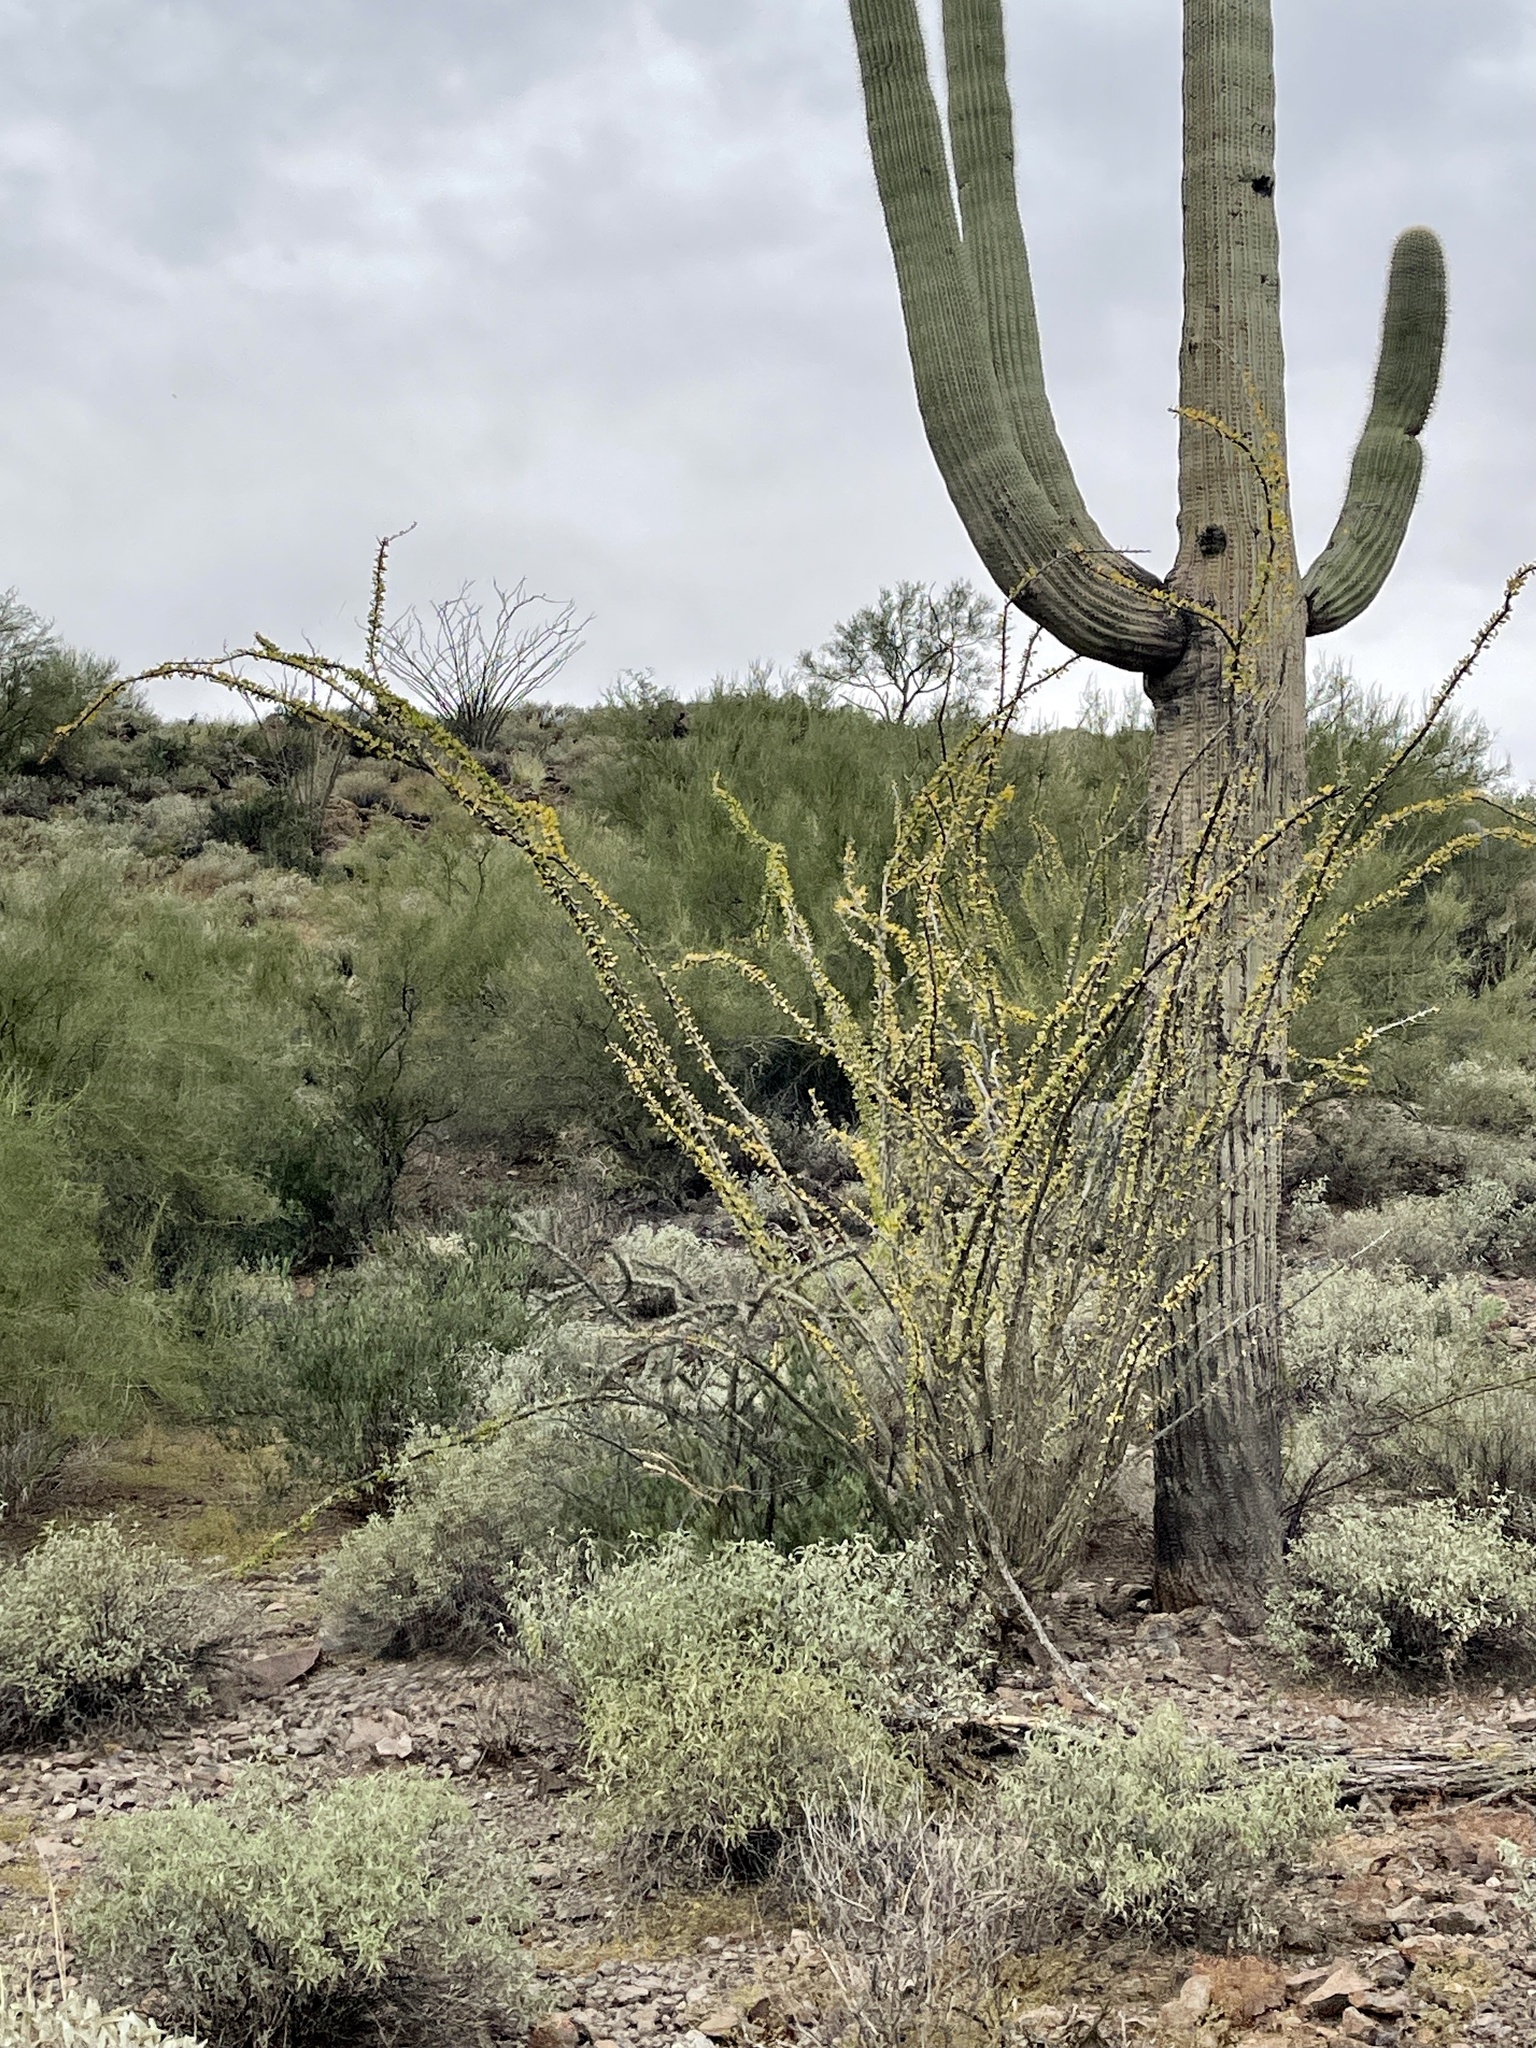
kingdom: Plantae
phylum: Tracheophyta
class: Magnoliopsida
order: Ericales
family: Fouquieriaceae
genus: Fouquieria
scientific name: Fouquieria splendens
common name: Vine-cactus
